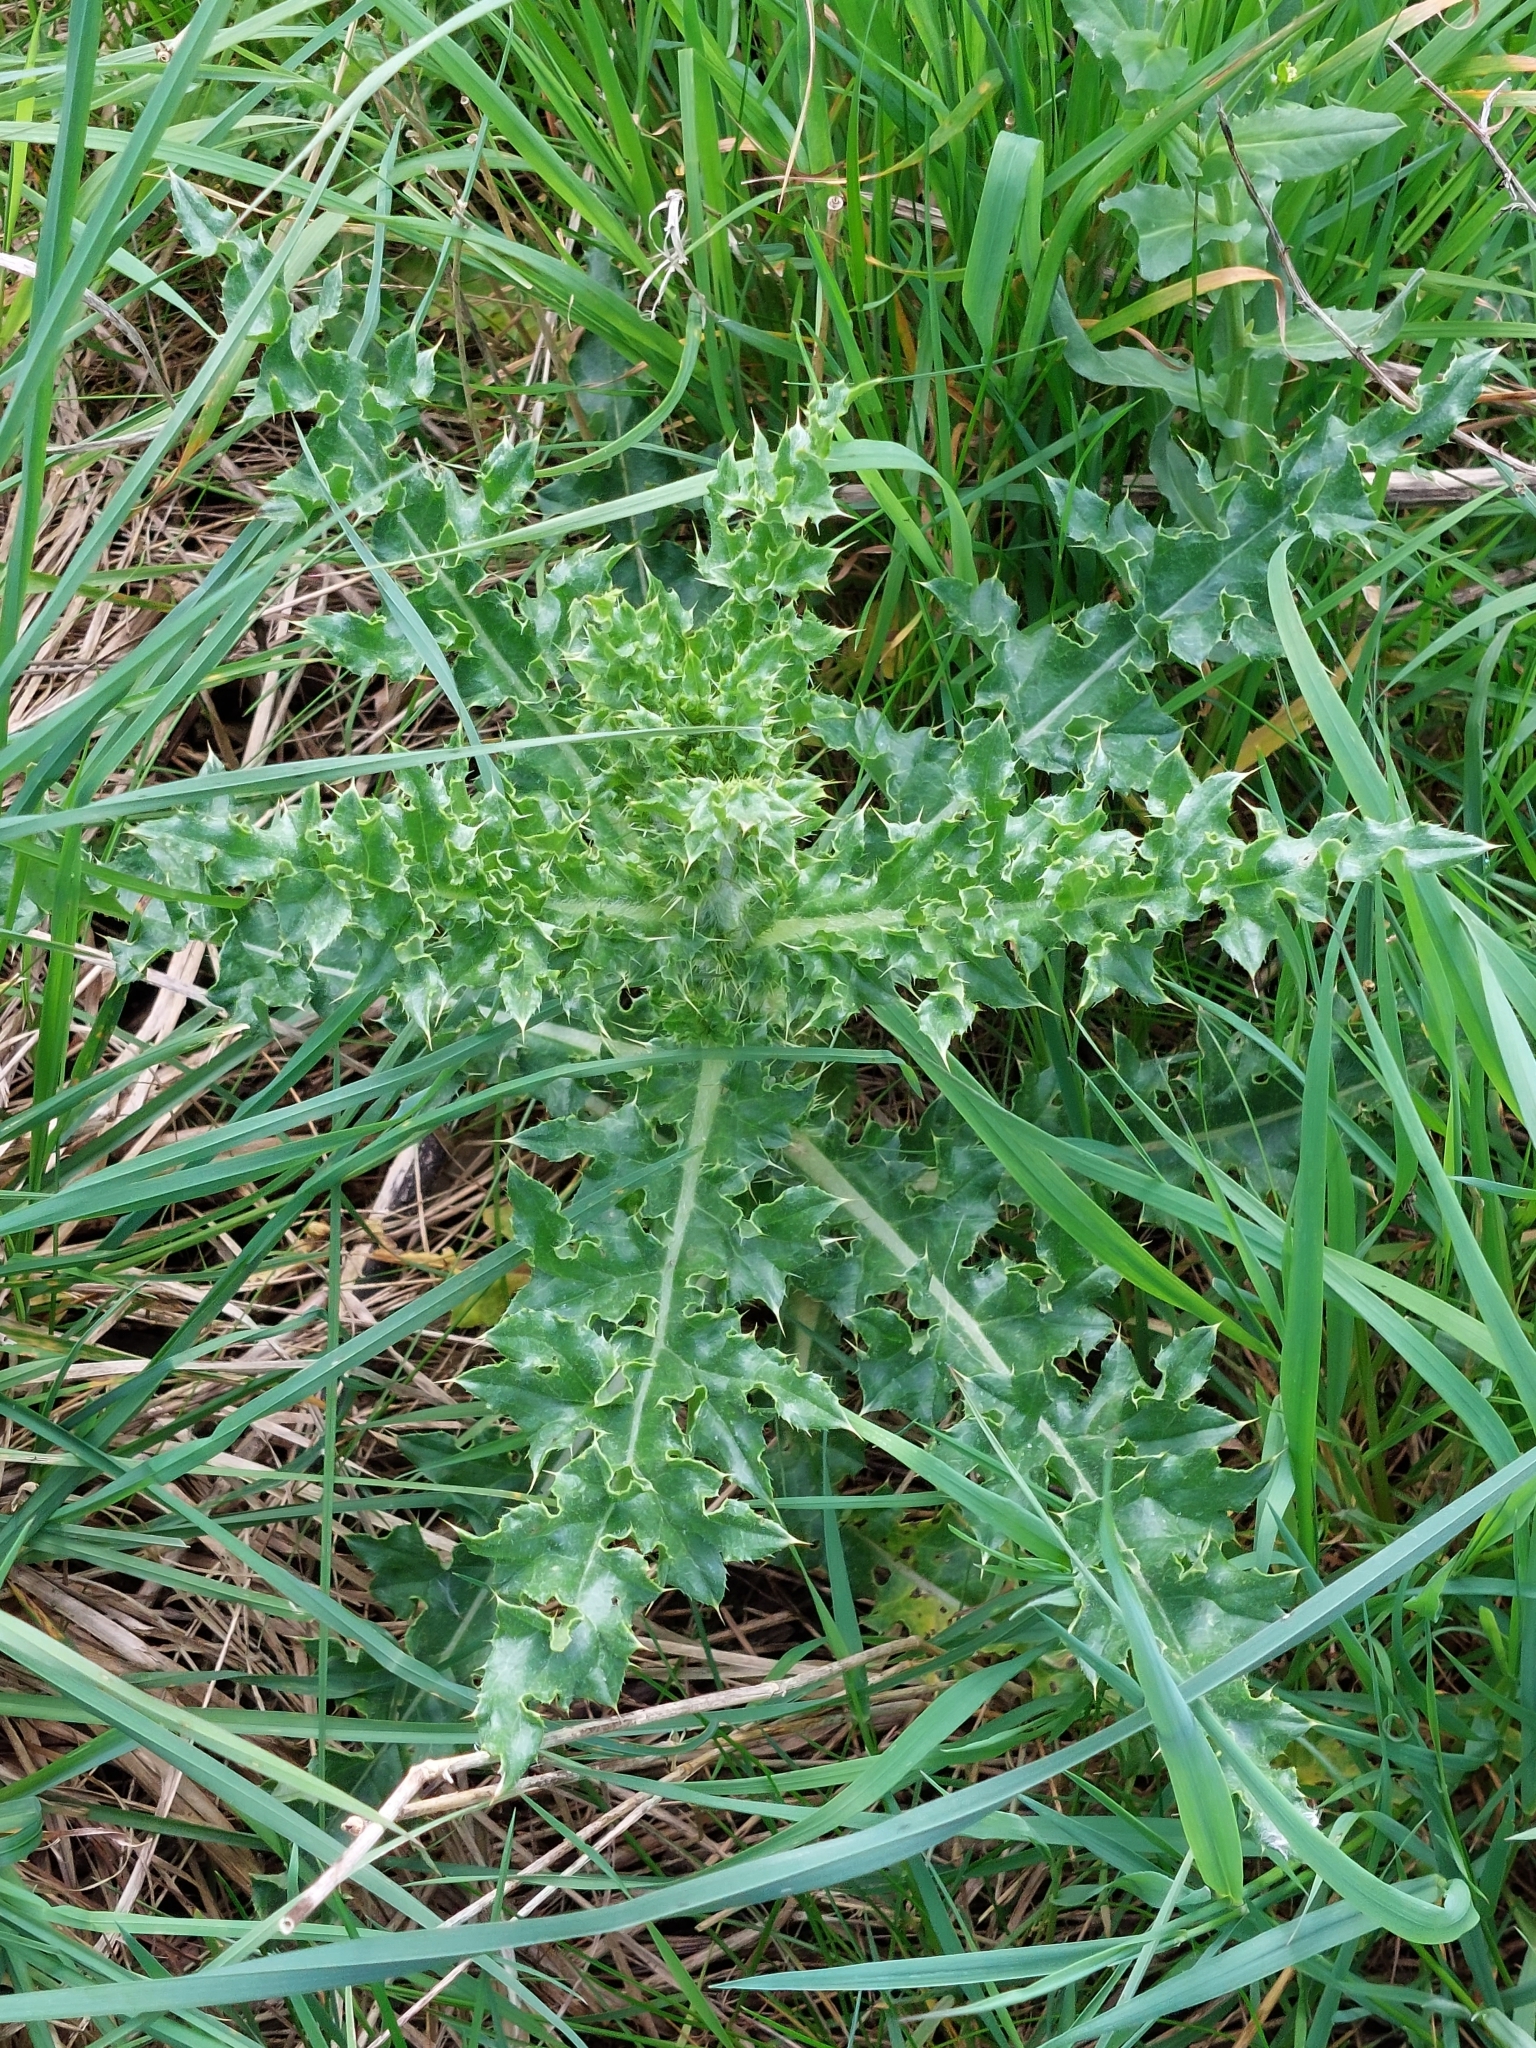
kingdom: Plantae
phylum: Tracheophyta
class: Magnoliopsida
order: Asterales
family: Asteraceae
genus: Cirsium
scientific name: Cirsium arvense
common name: Creeping thistle
